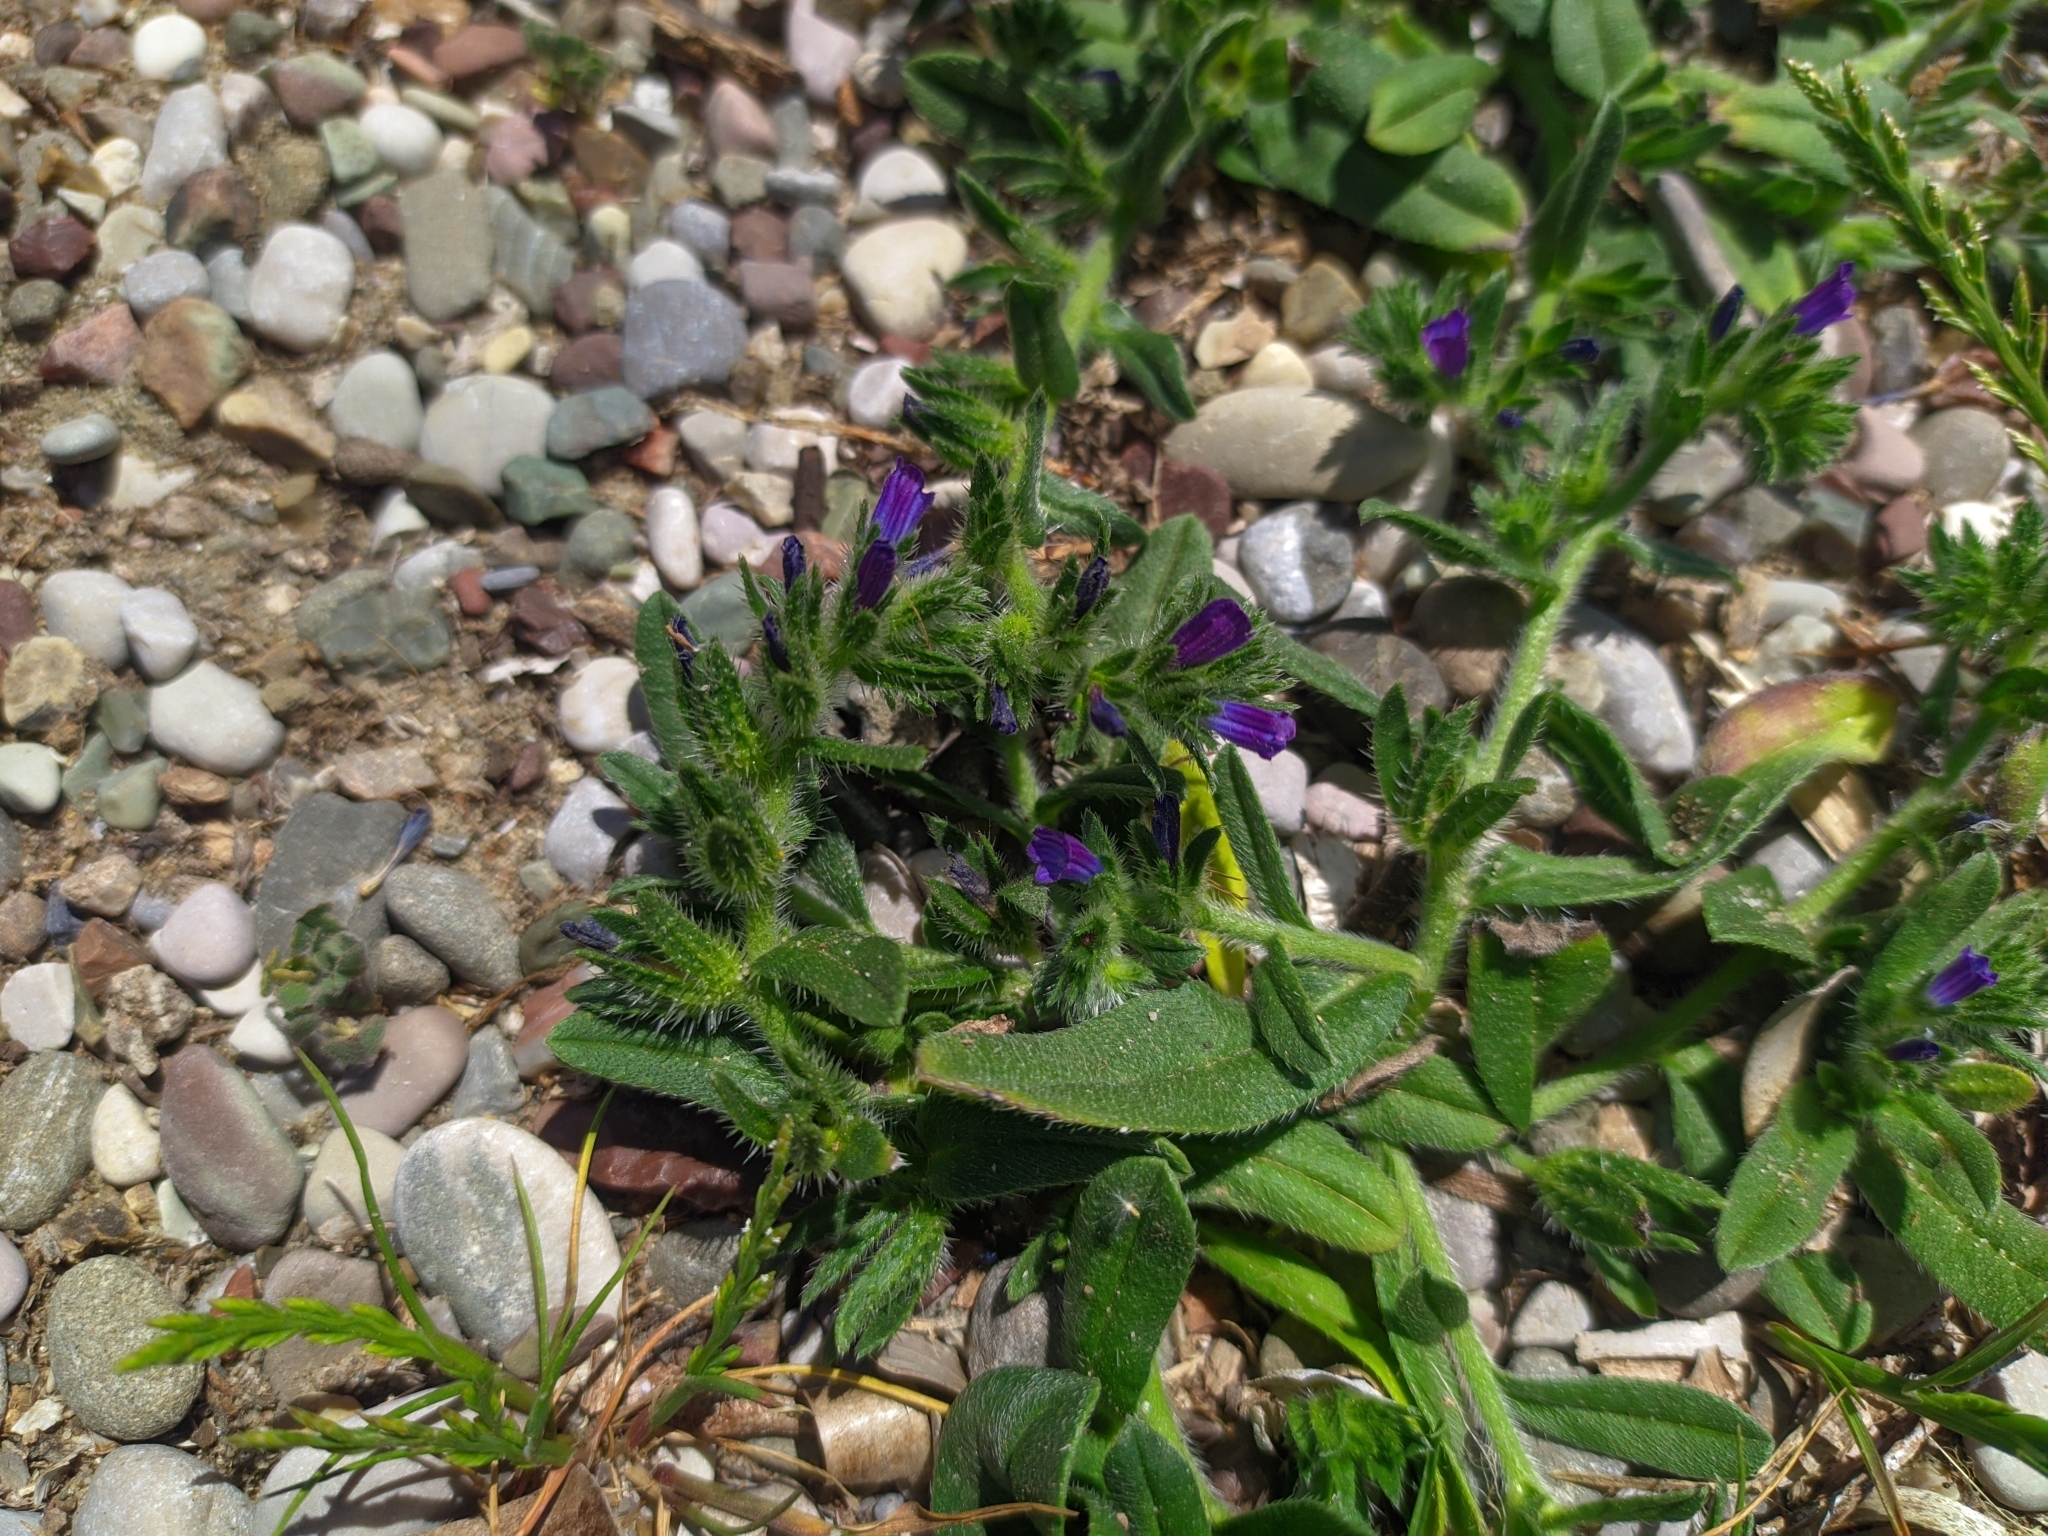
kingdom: Plantae
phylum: Tracheophyta
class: Magnoliopsida
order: Boraginales
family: Boraginaceae
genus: Lycopsis
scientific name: Lycopsis arvensis
